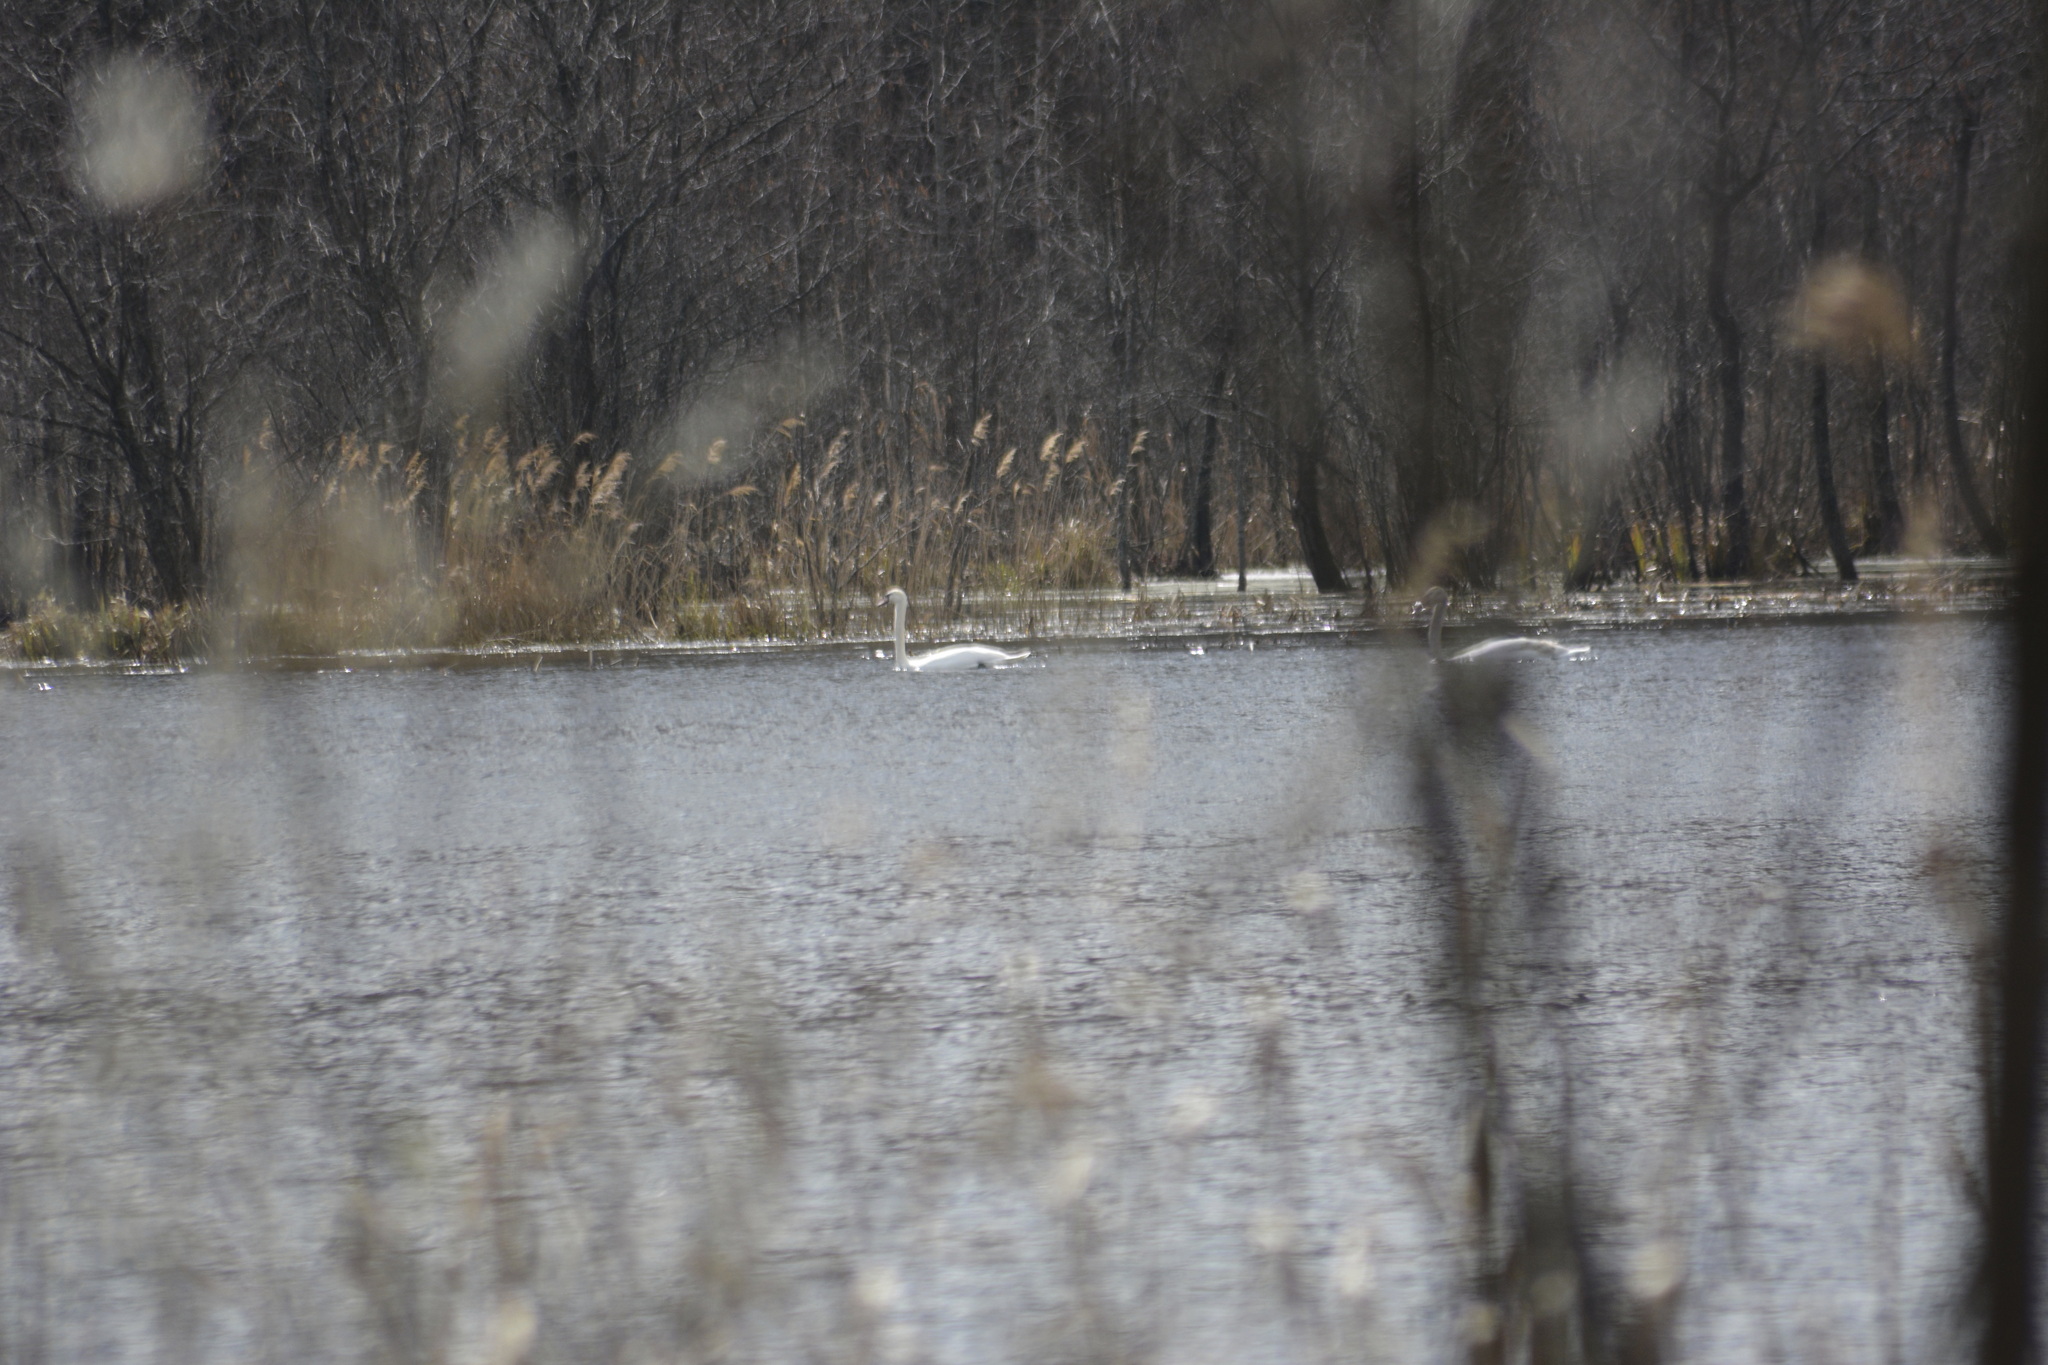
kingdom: Animalia
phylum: Chordata
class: Aves
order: Anseriformes
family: Anatidae
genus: Cygnus
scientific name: Cygnus olor
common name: Mute swan
